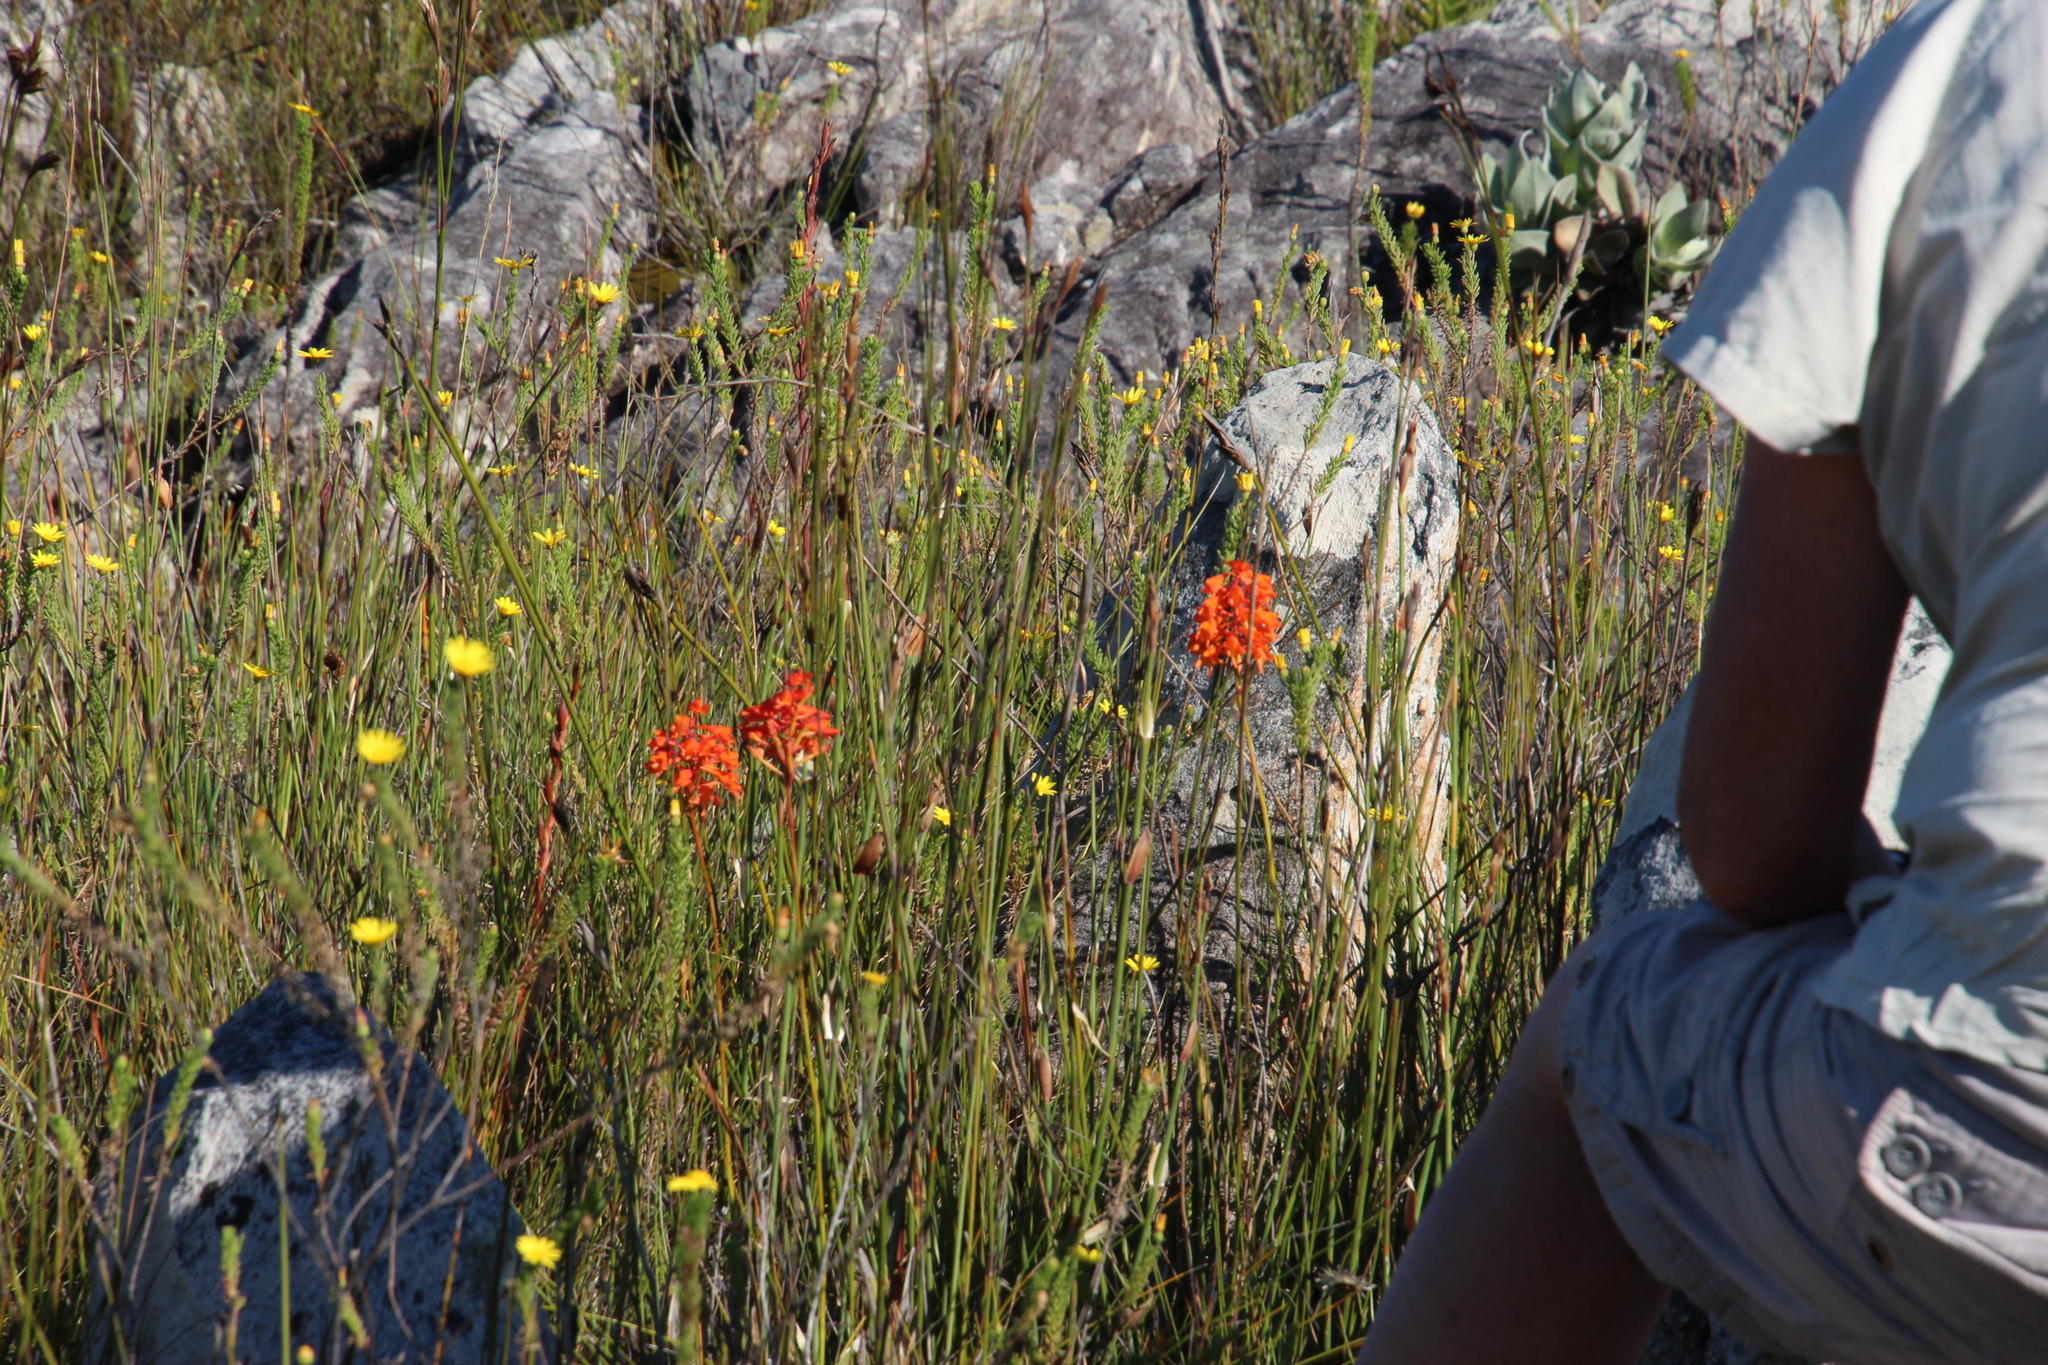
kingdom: Plantae
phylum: Tracheophyta
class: Liliopsida
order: Asparagales
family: Orchidaceae
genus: Disa
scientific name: Disa ferruginea
